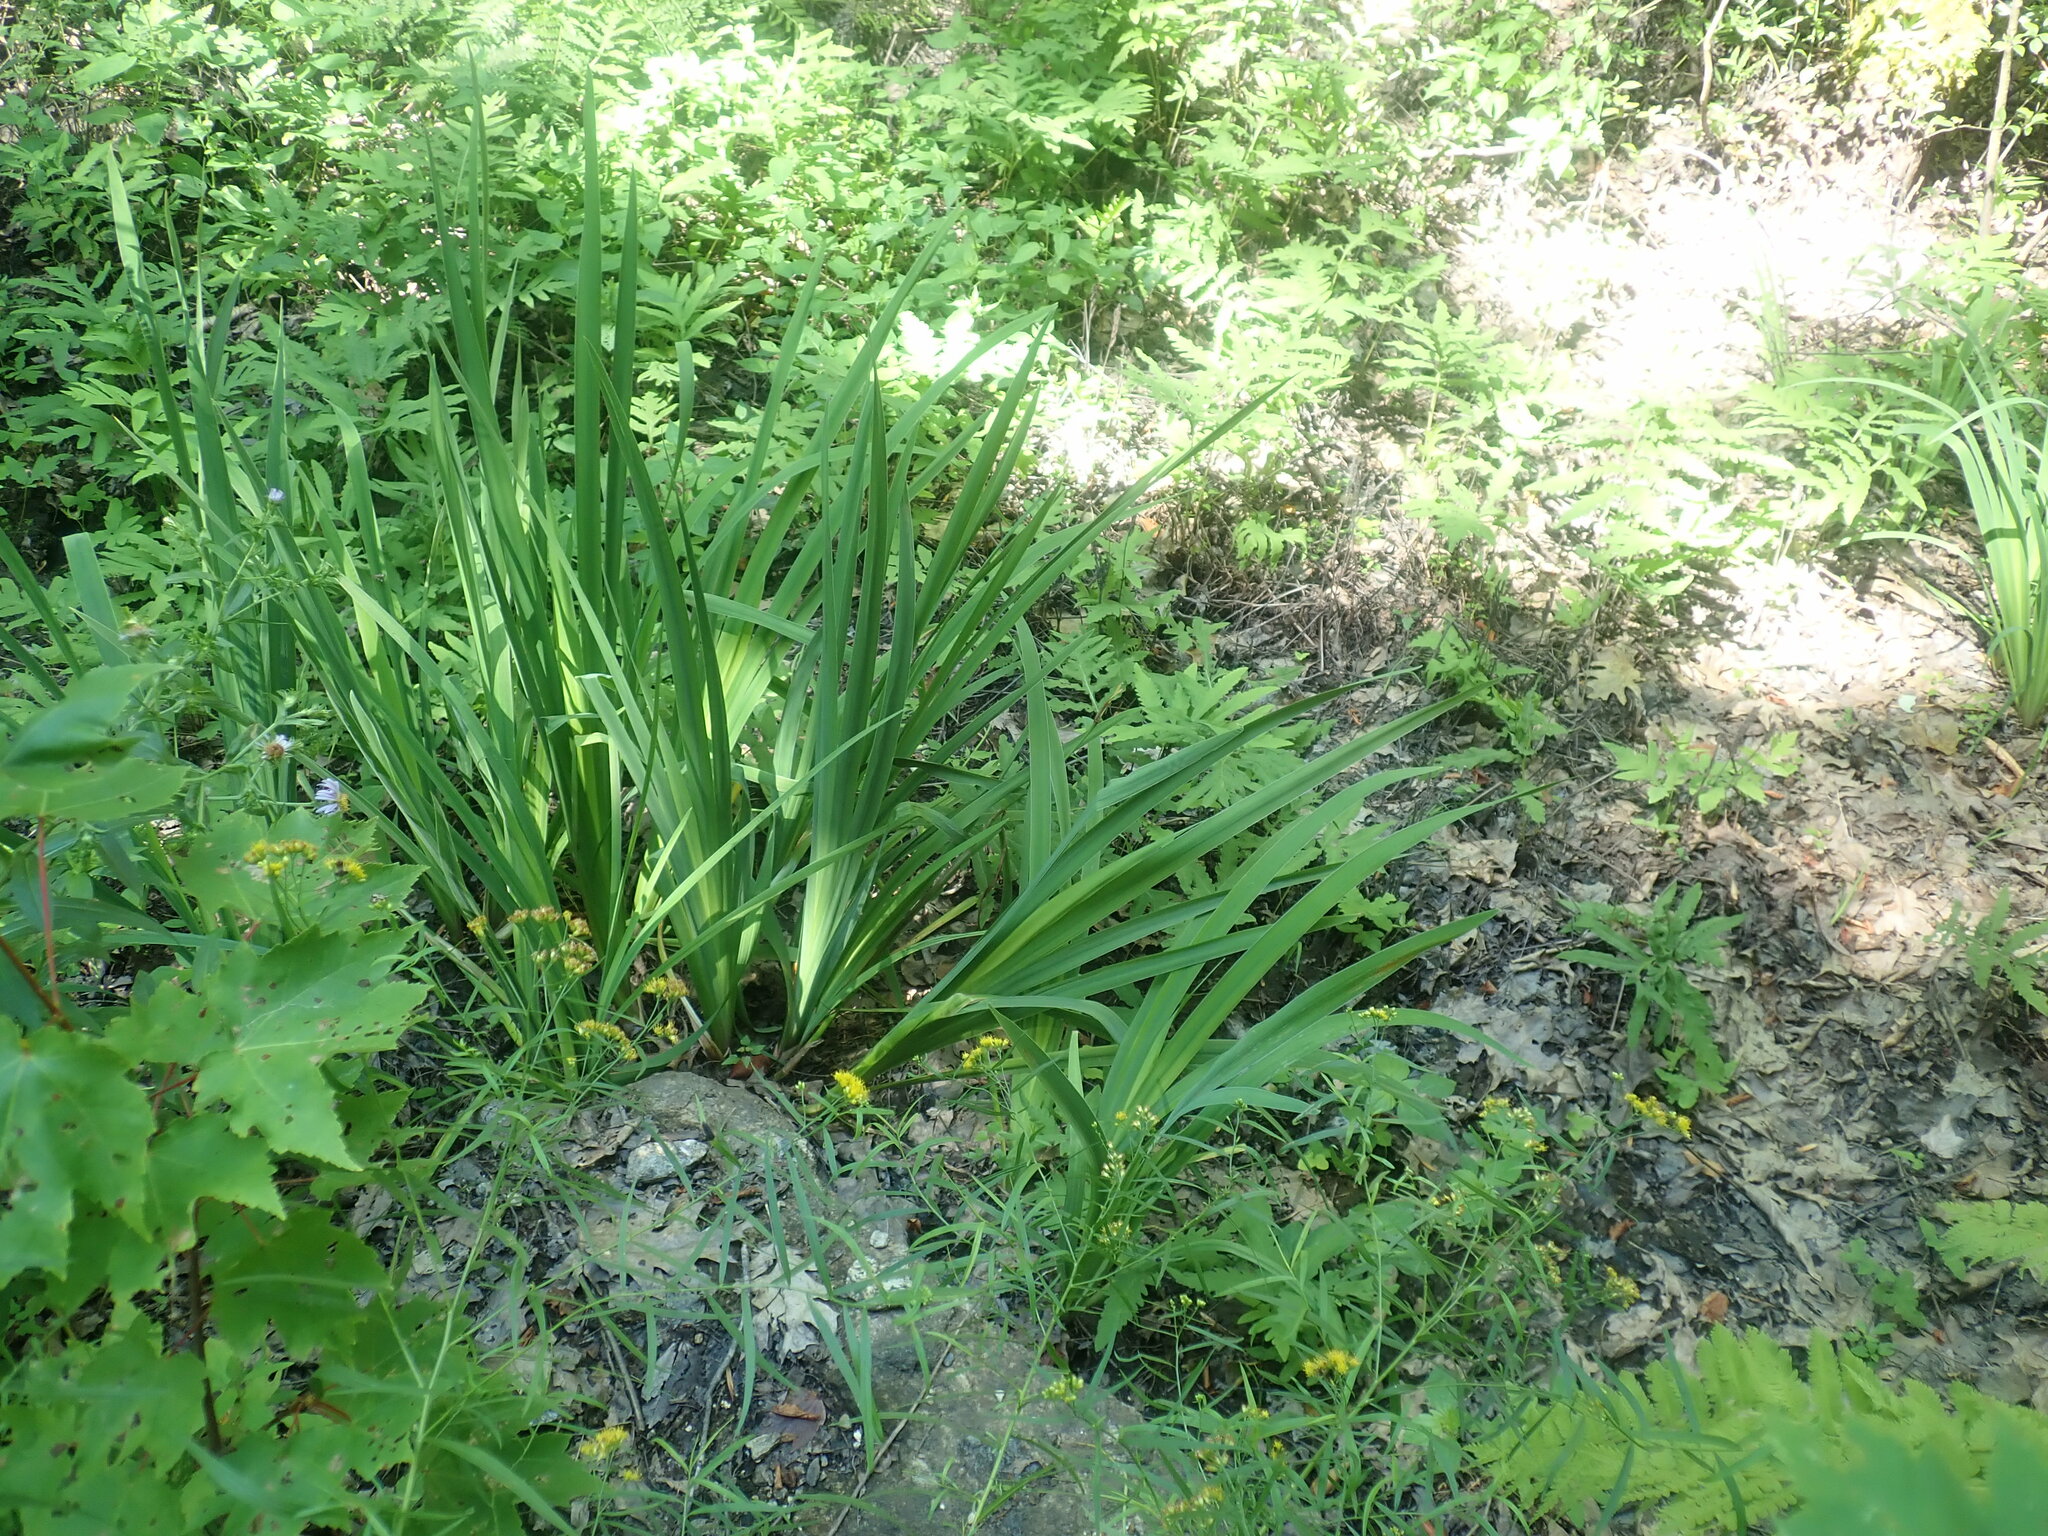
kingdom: Plantae
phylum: Tracheophyta
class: Liliopsida
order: Asparagales
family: Iridaceae
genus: Iris
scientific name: Iris
